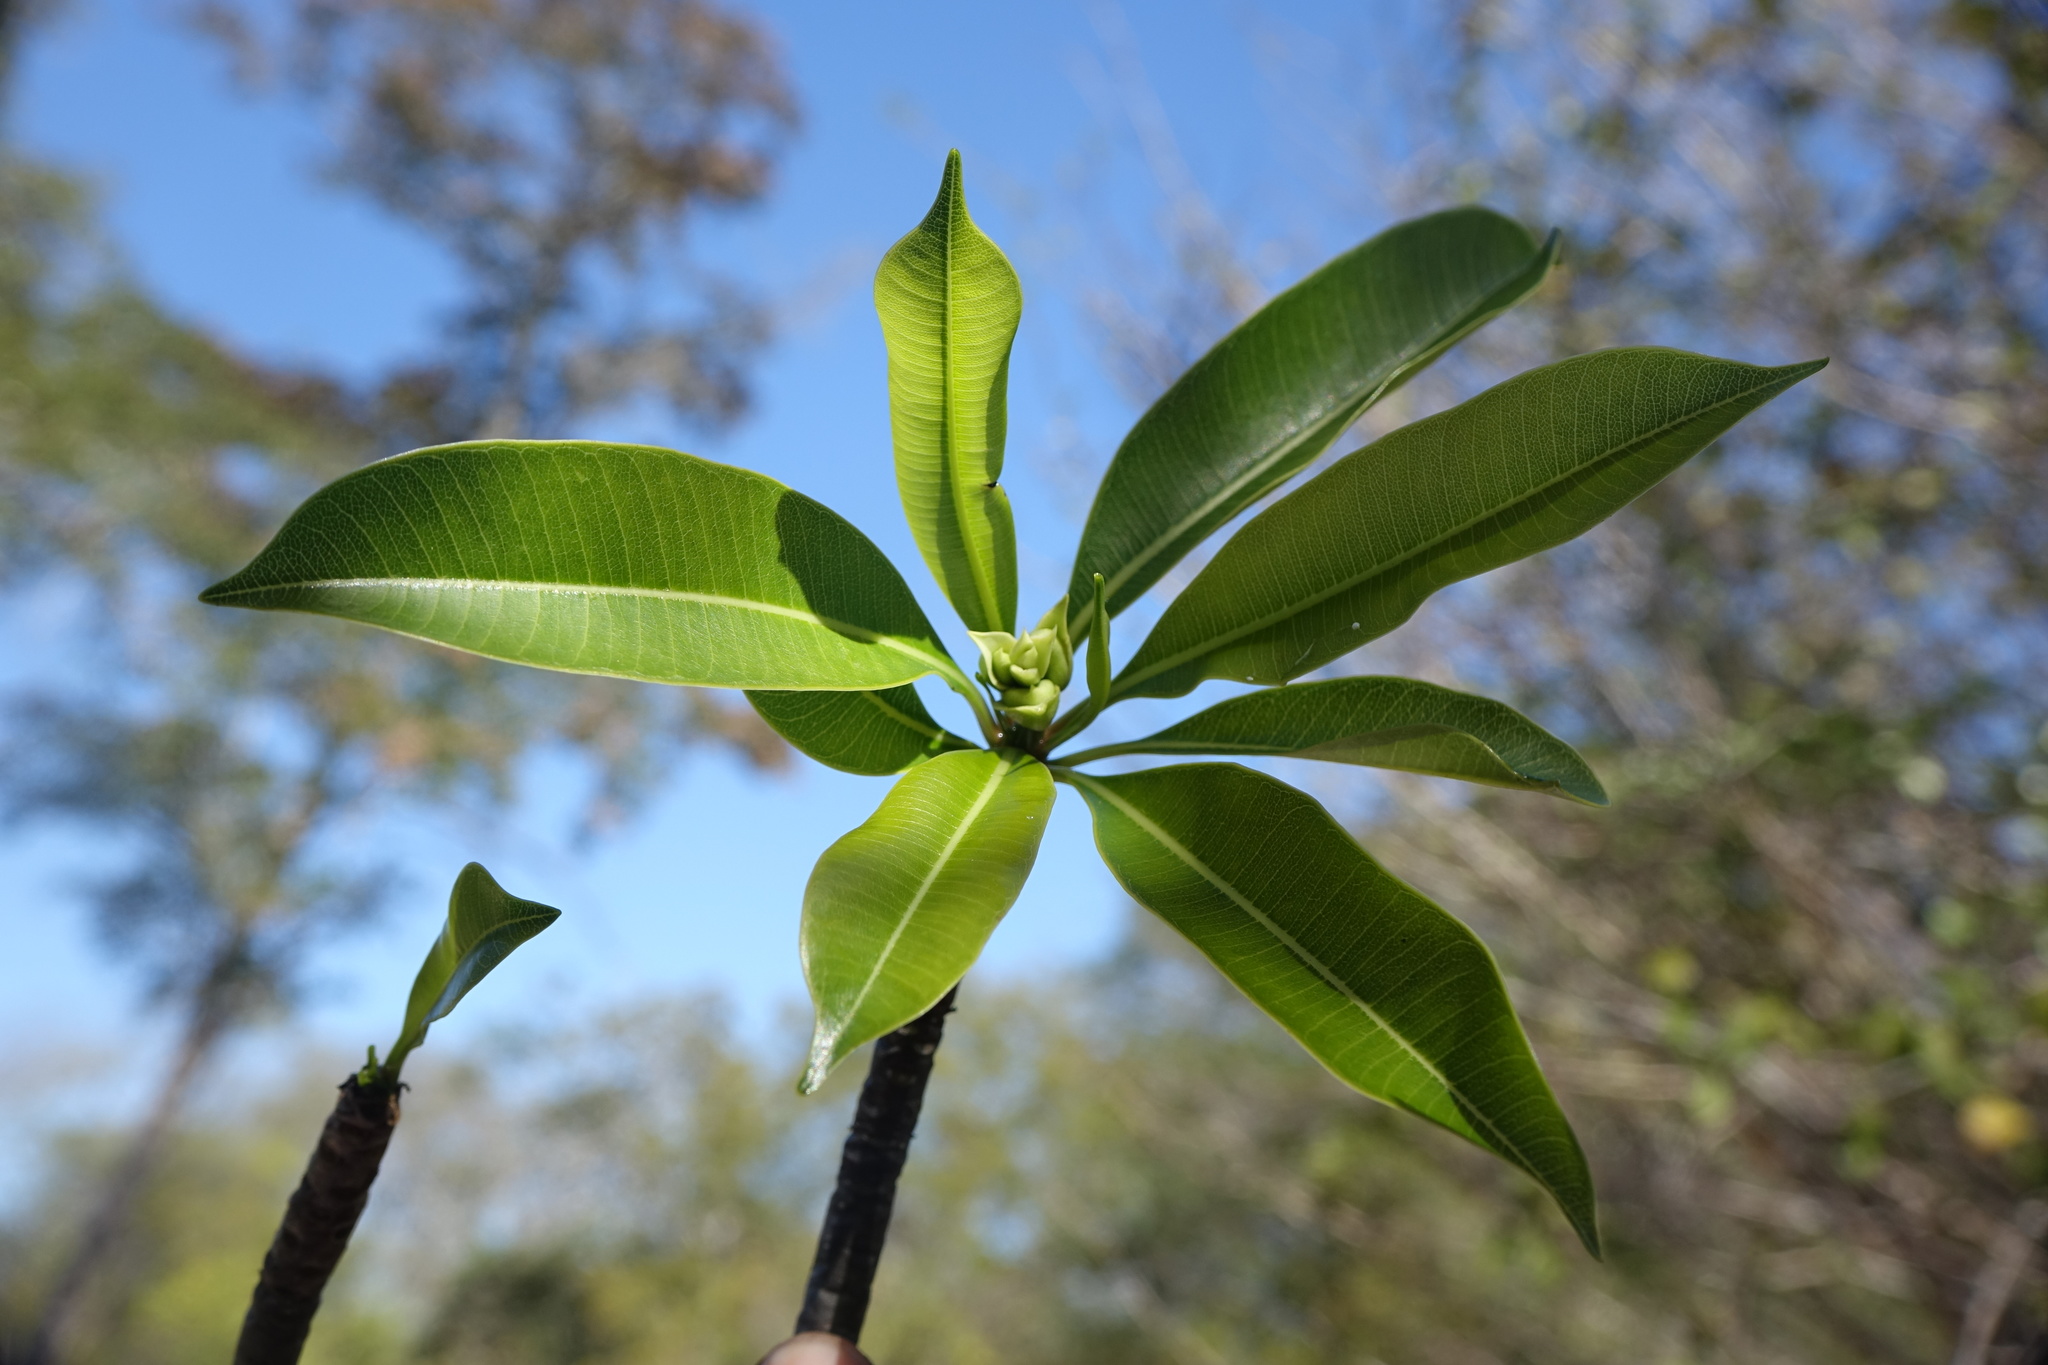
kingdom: Plantae
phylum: Tracheophyta
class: Magnoliopsida
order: Gentianales
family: Apocynaceae
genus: Cerbera
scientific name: Cerbera manghas
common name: Reva
